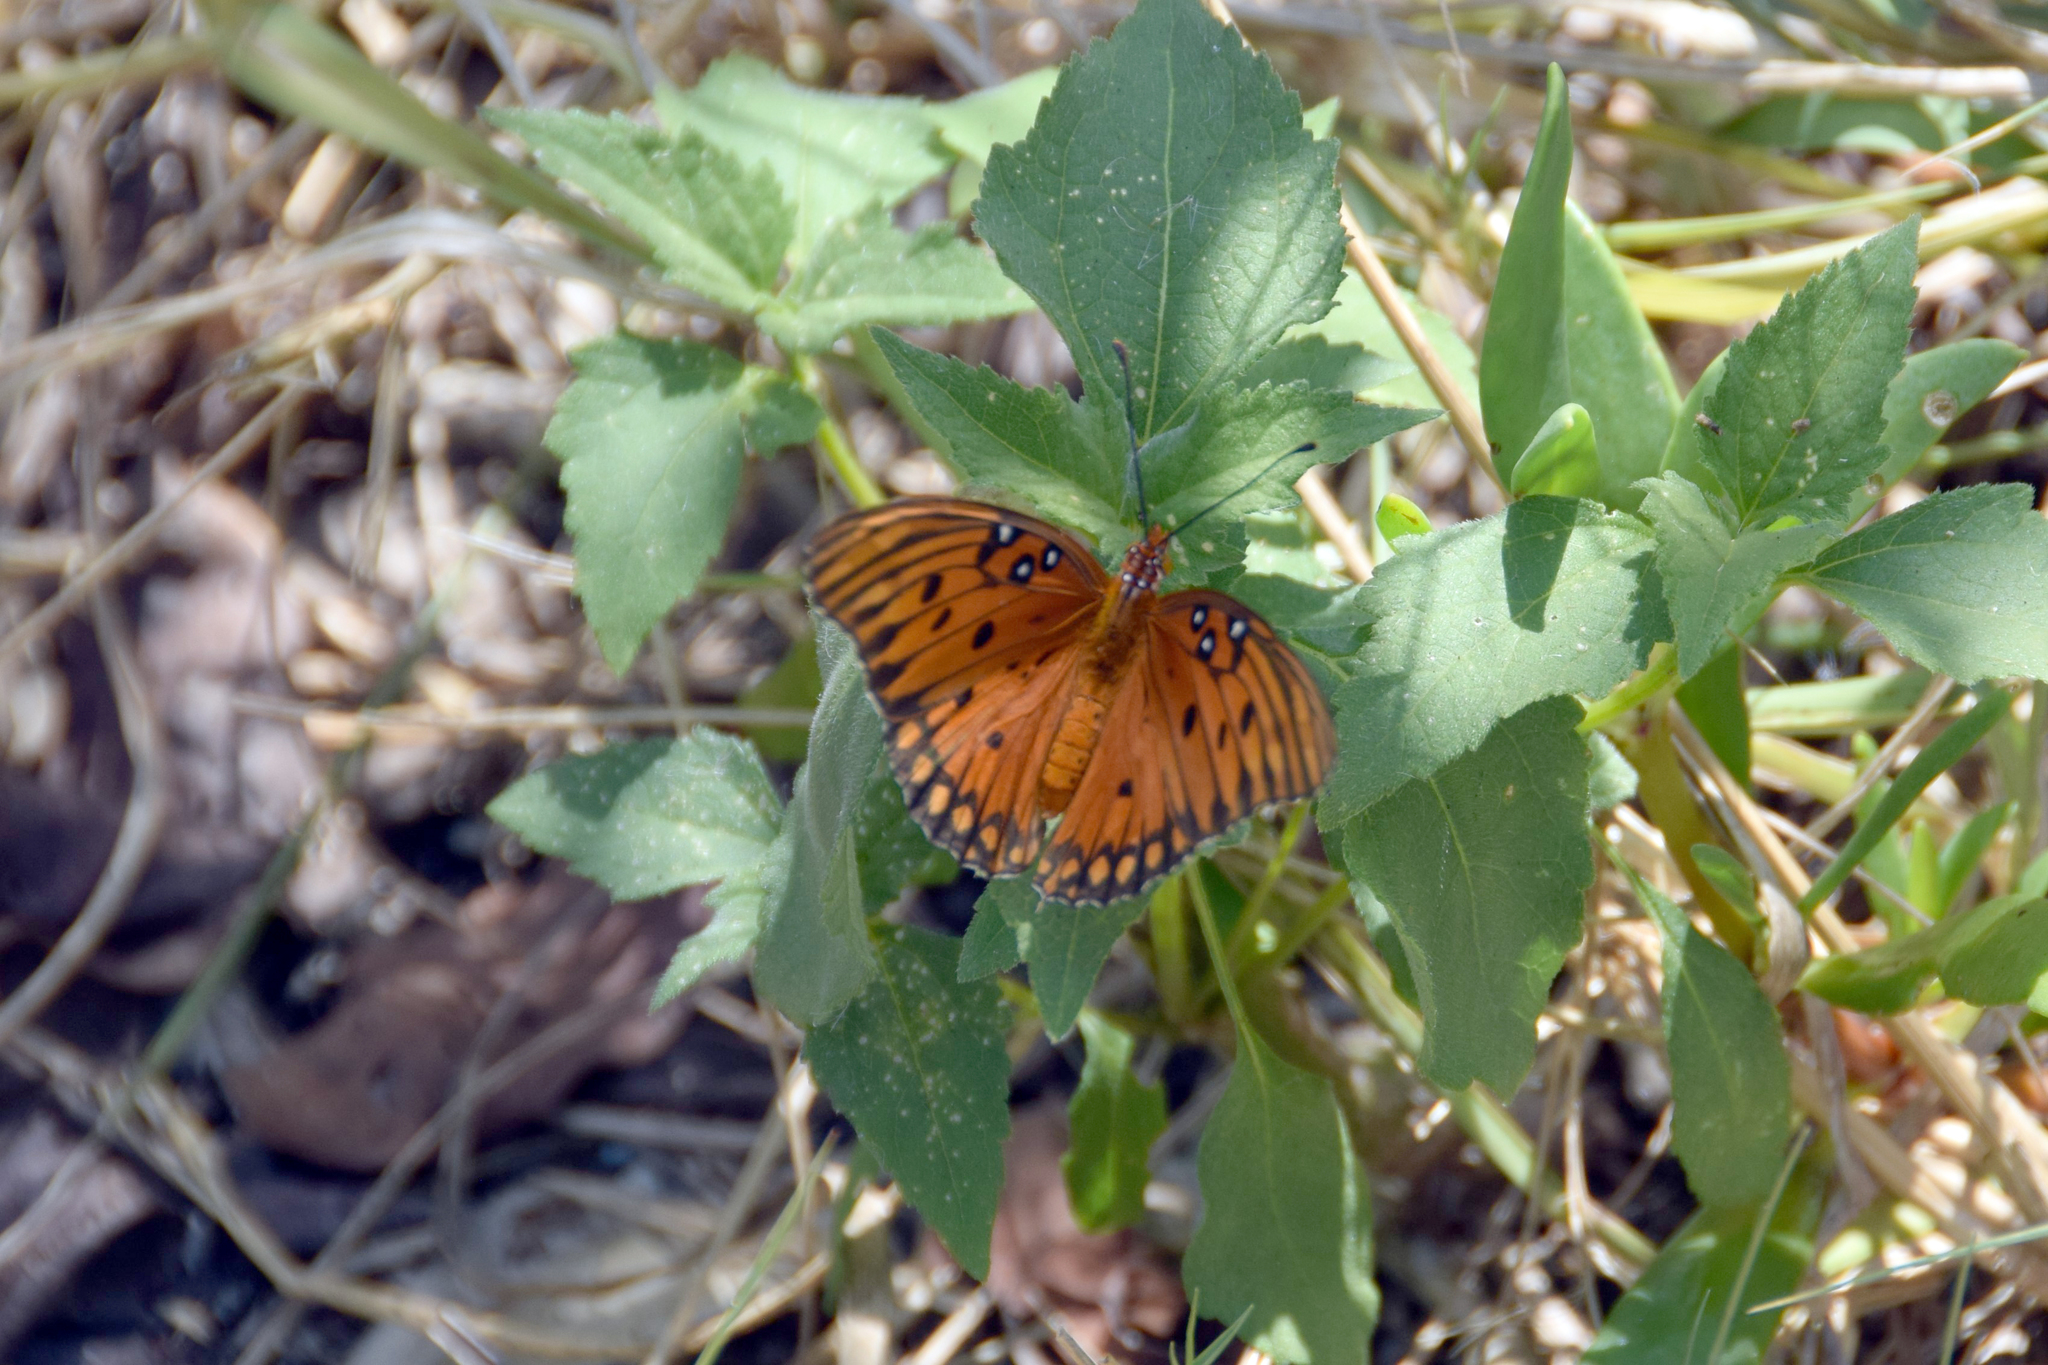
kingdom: Animalia
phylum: Arthropoda
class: Insecta
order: Lepidoptera
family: Nymphalidae
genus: Dione
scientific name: Dione vanillae
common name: Gulf fritillary
